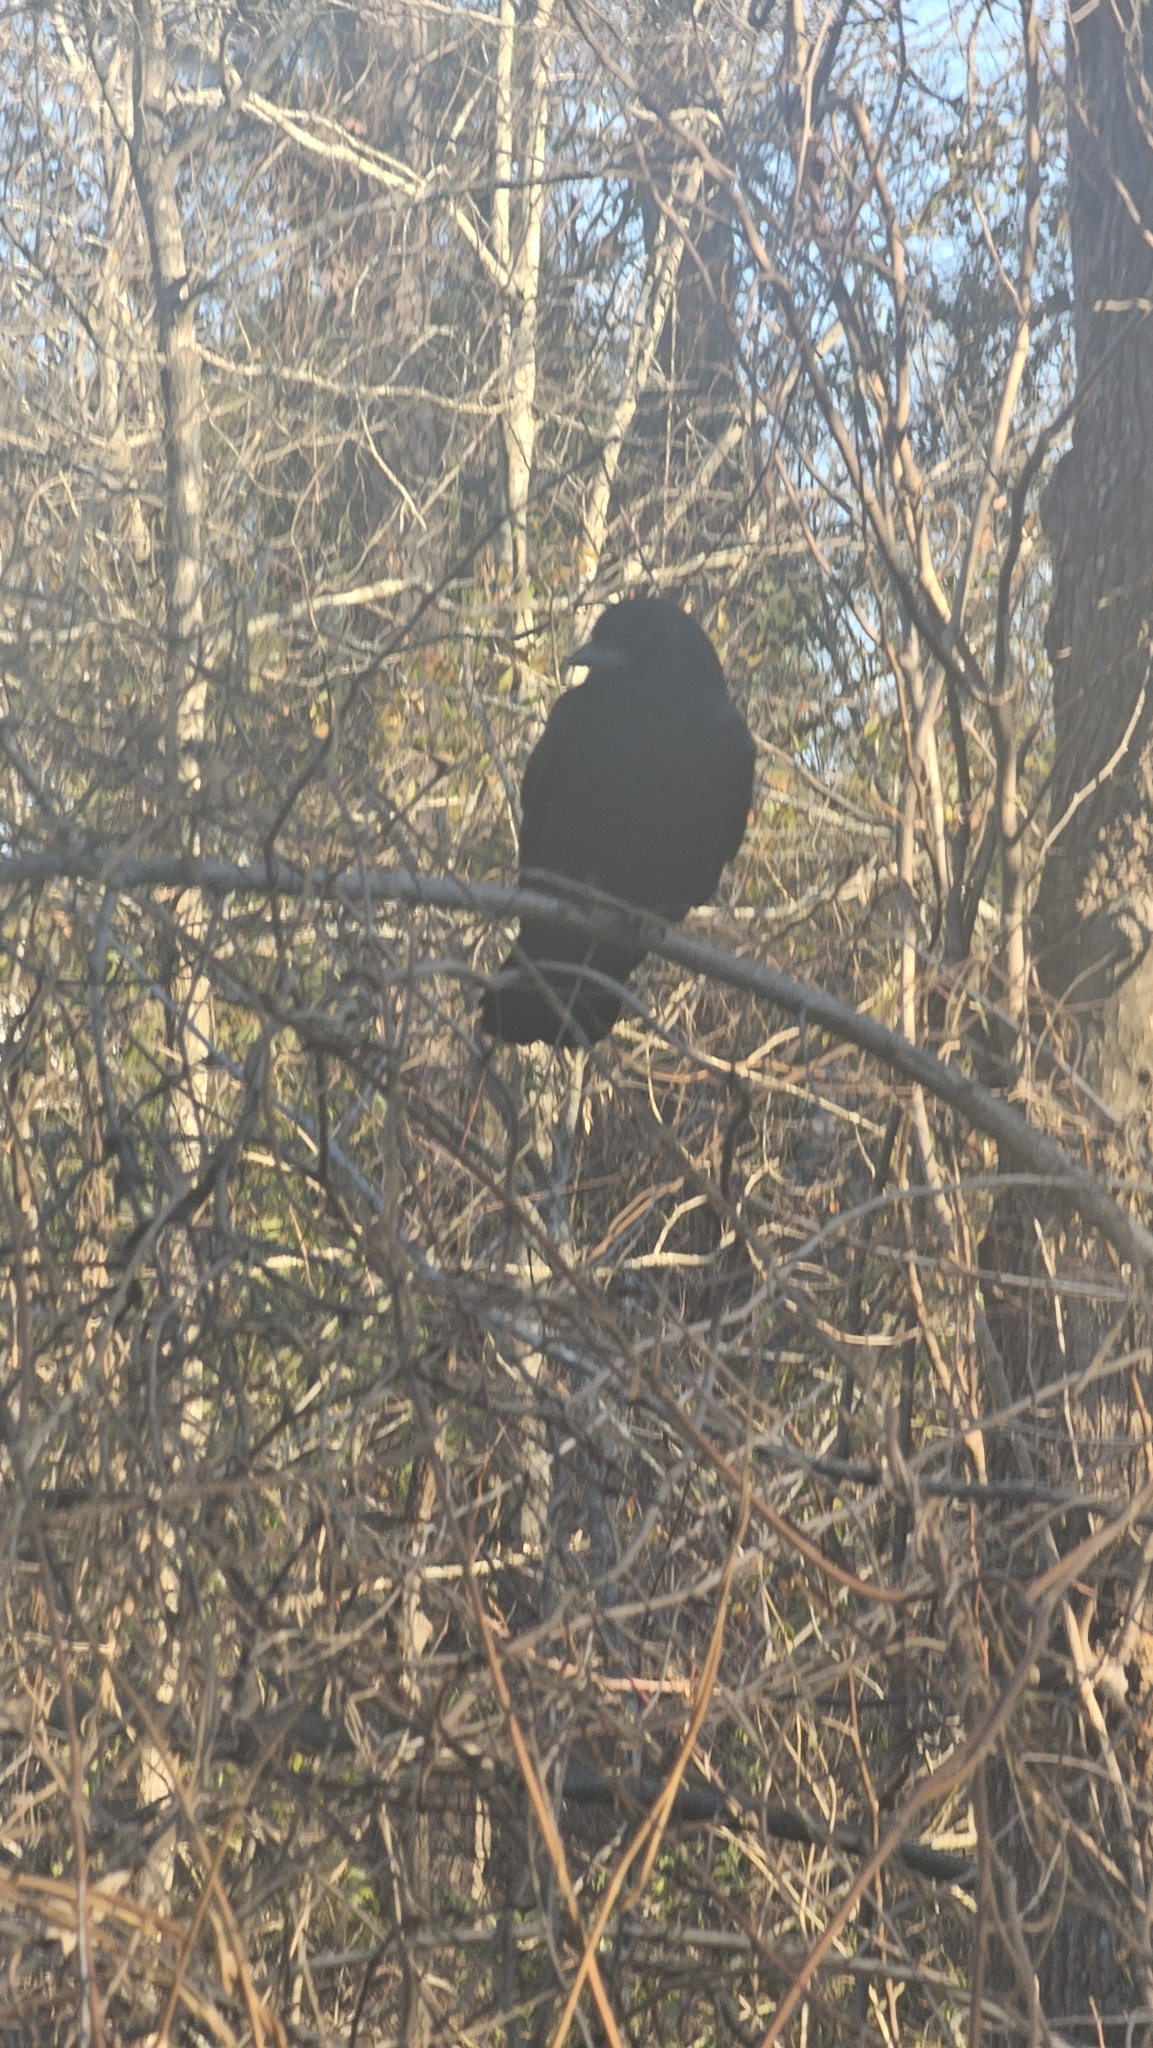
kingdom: Animalia
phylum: Chordata
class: Aves
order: Passeriformes
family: Corvidae
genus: Corvus
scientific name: Corvus
